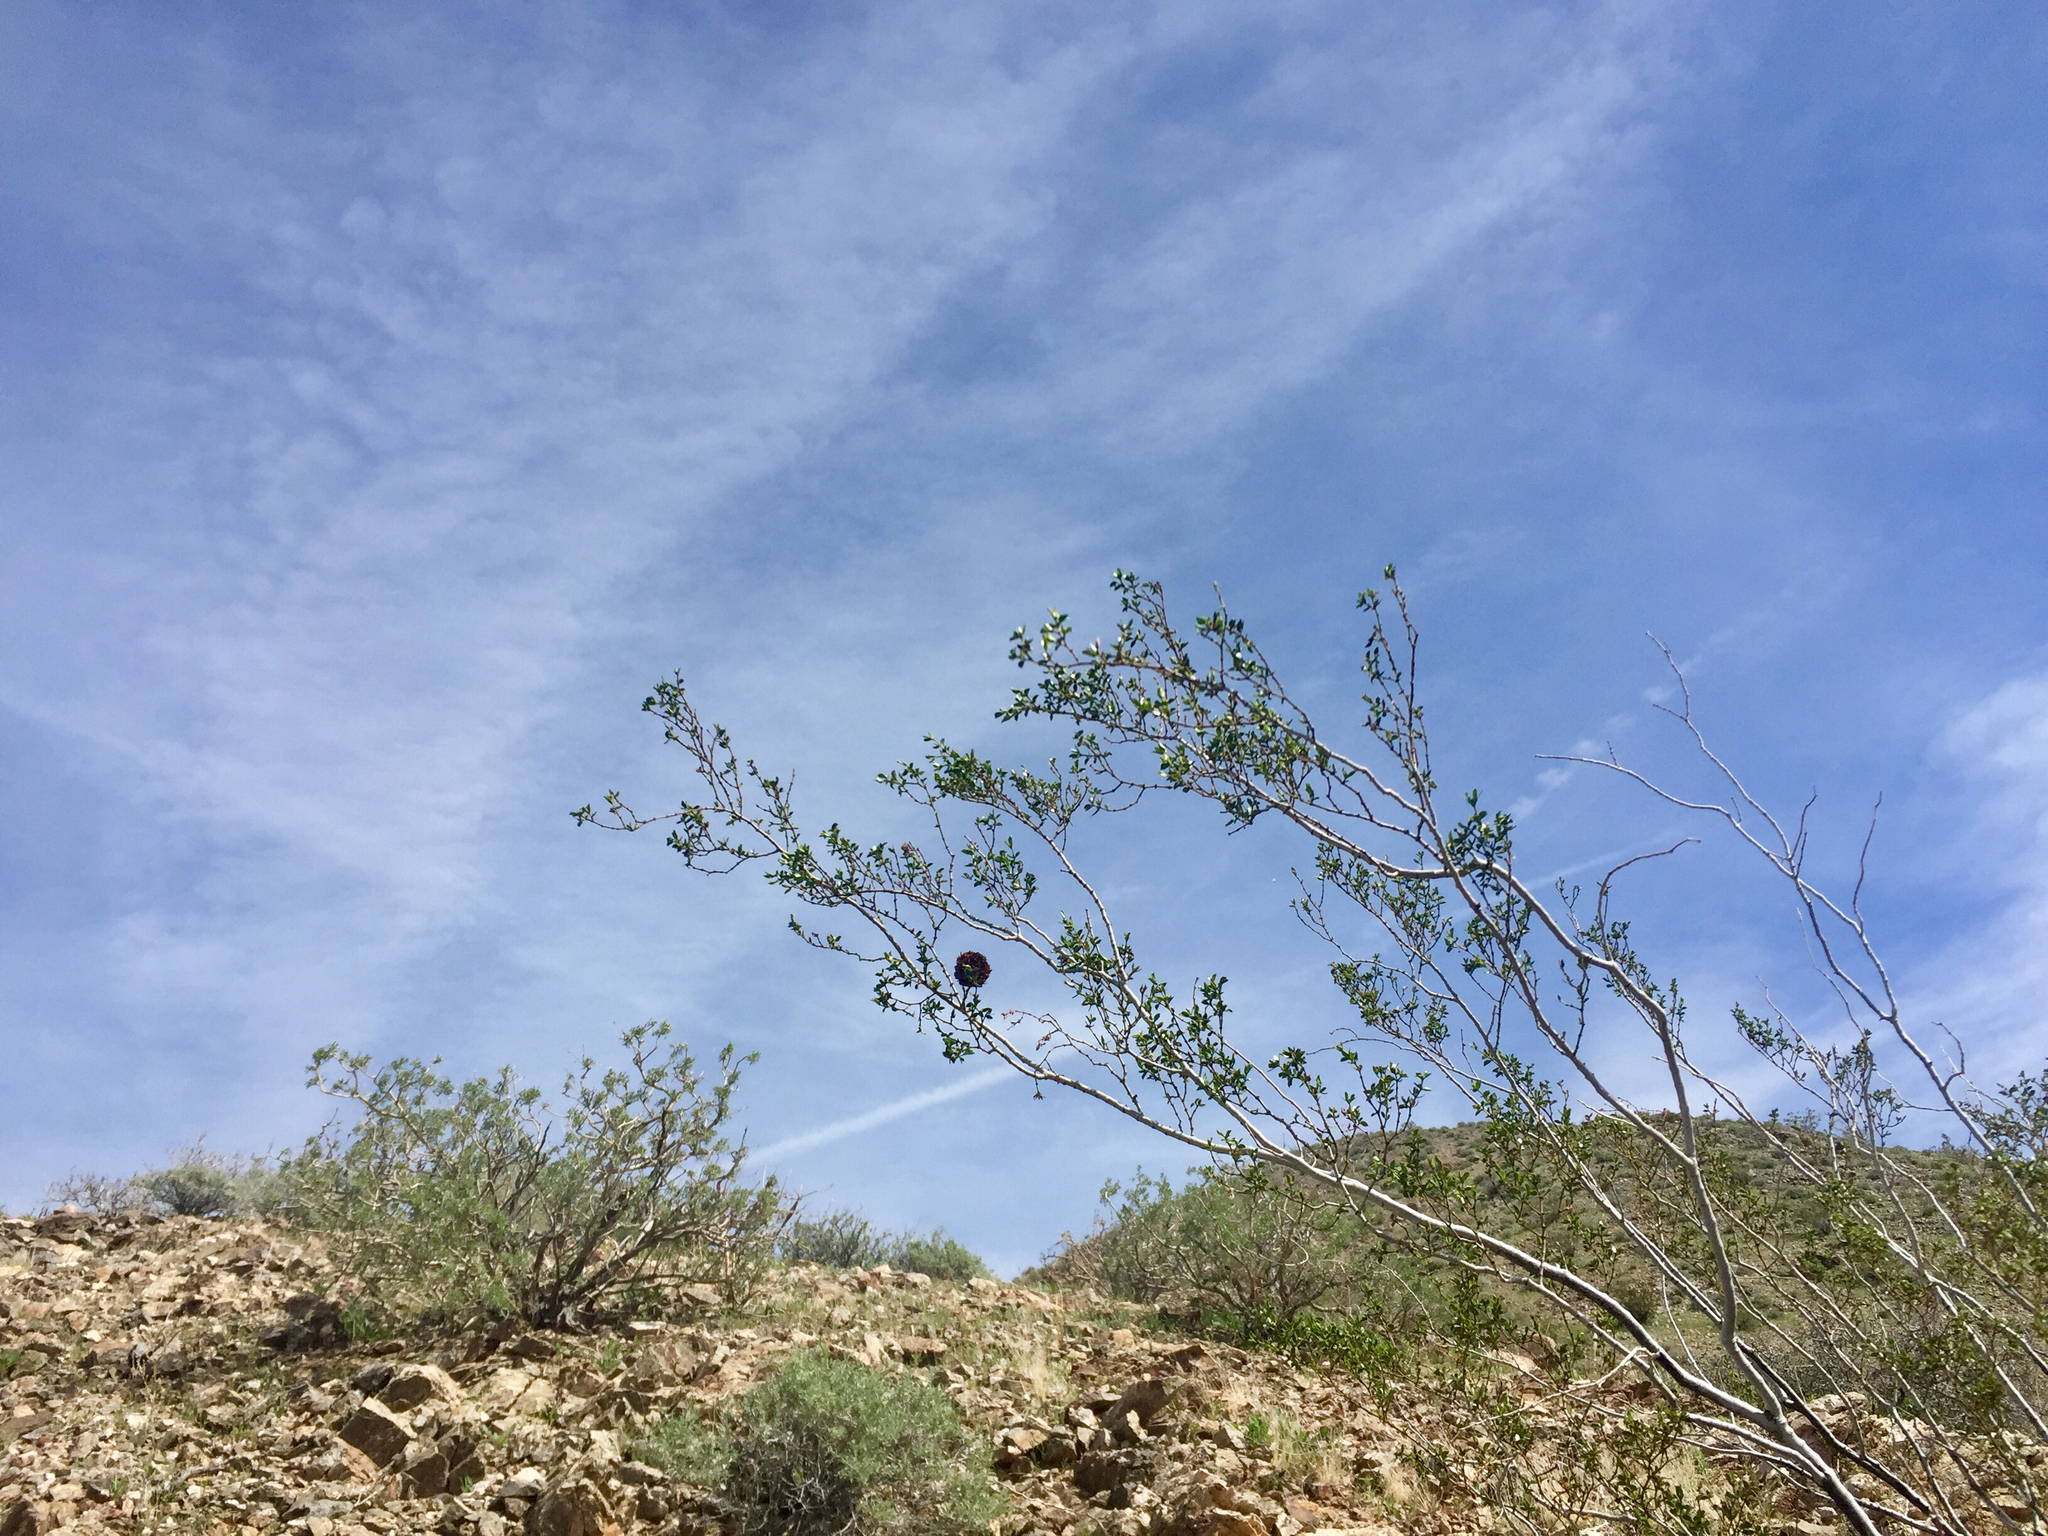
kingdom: Animalia
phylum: Arthropoda
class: Insecta
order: Diptera
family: Cecidomyiidae
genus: Asphondylia
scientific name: Asphondylia auripila
